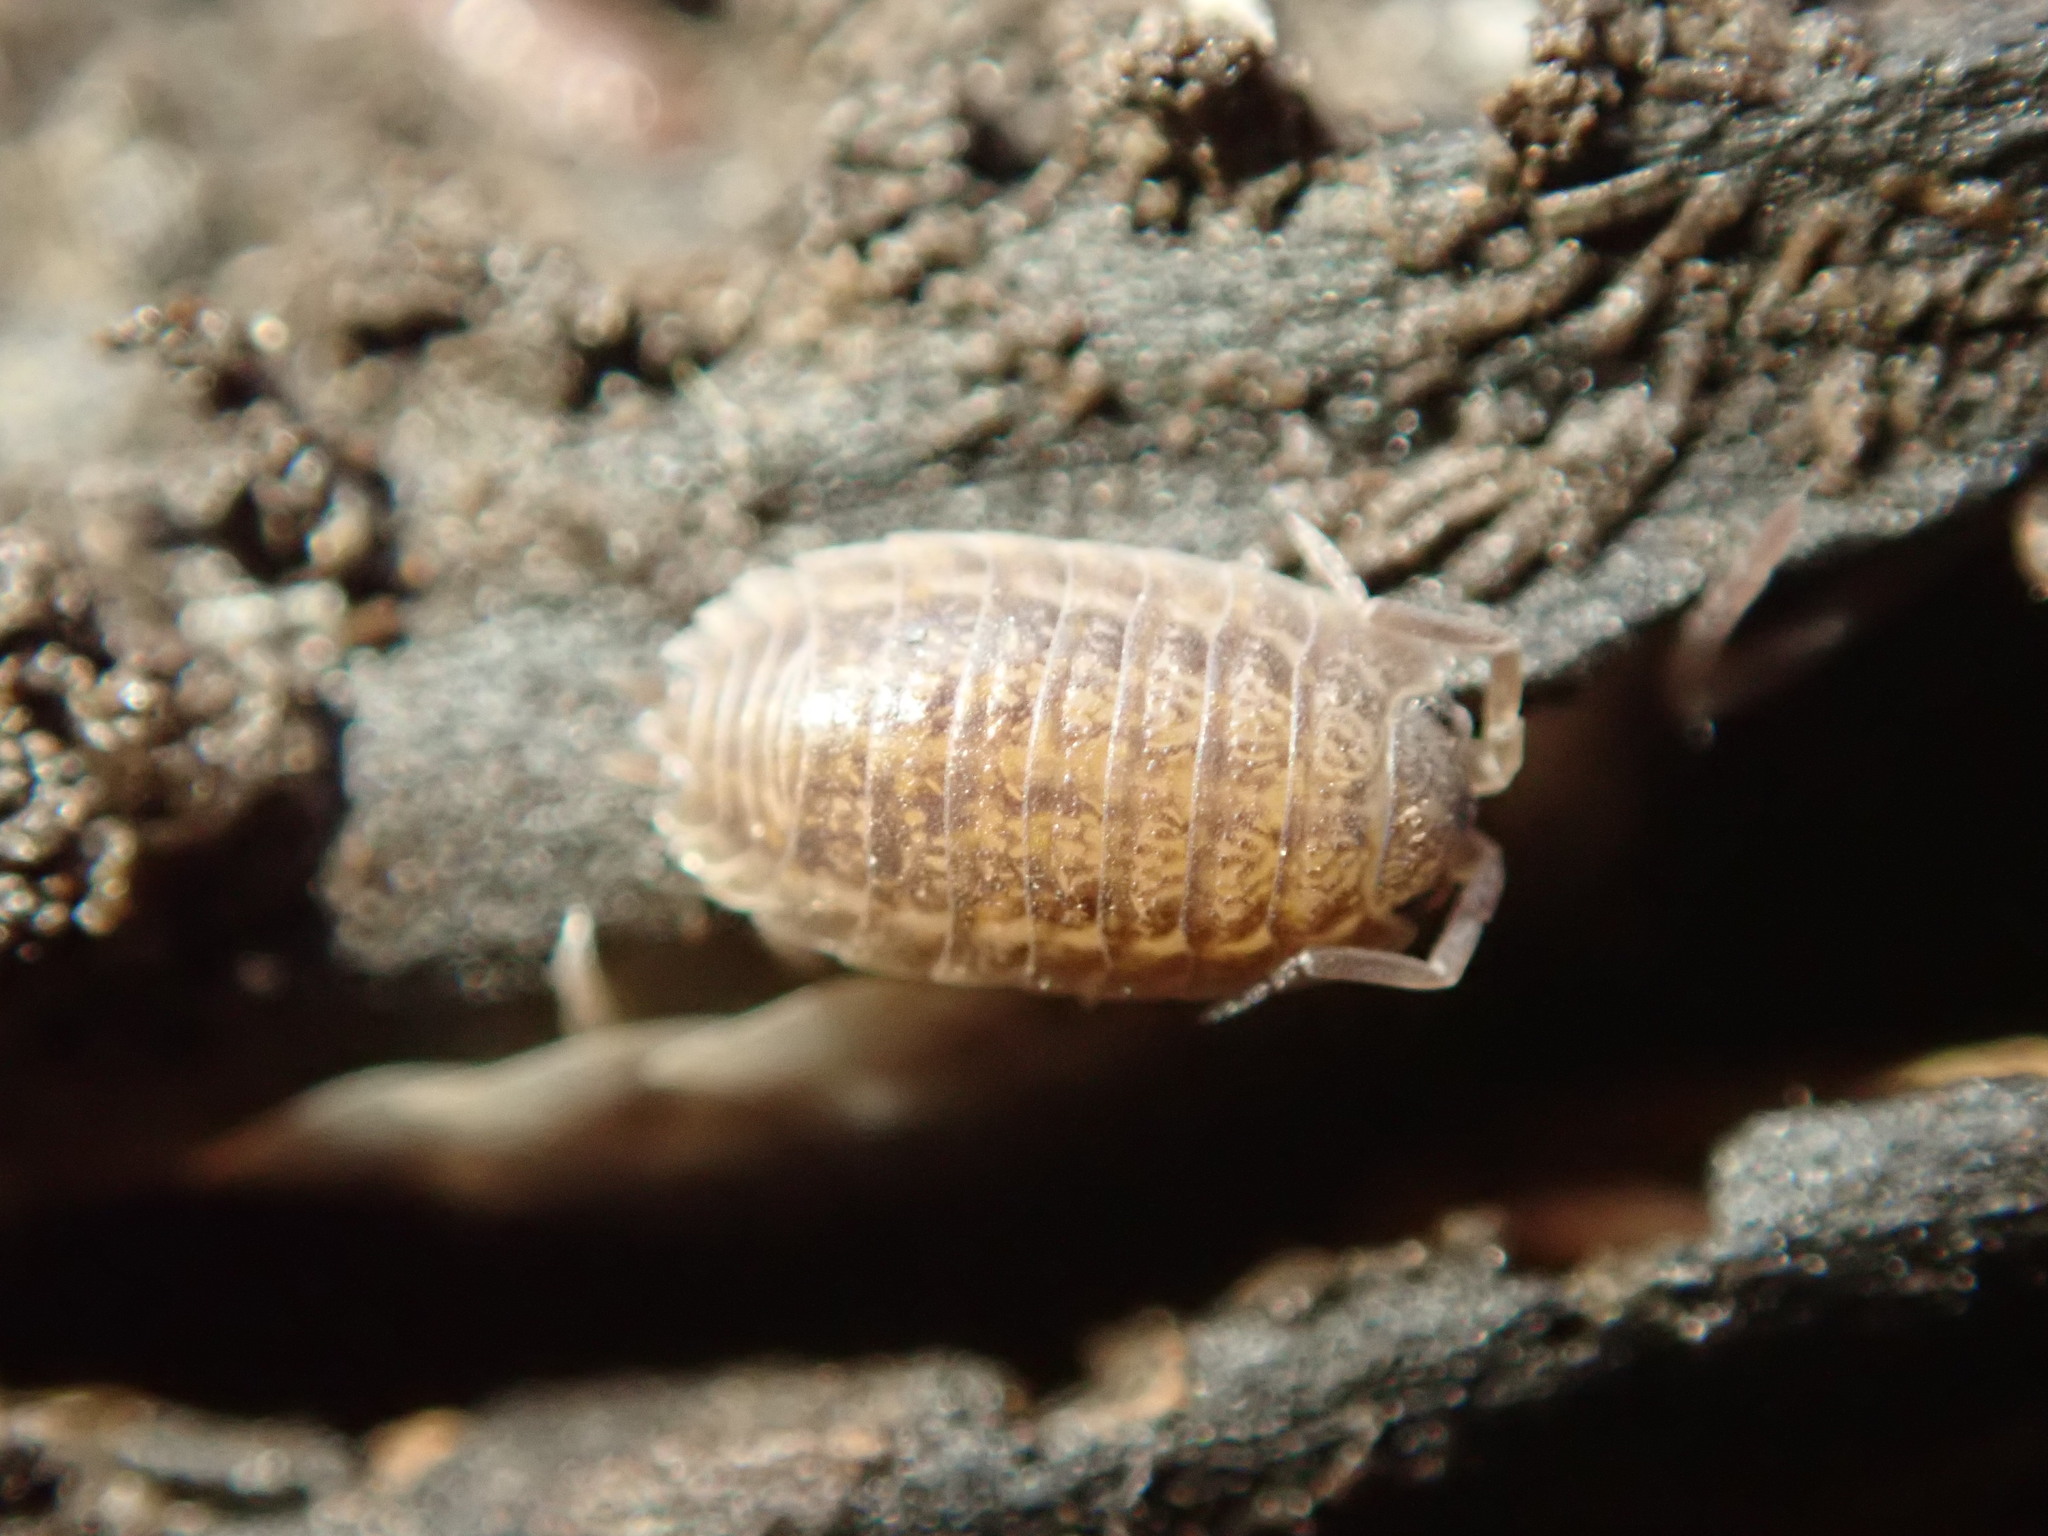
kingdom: Animalia
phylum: Arthropoda
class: Malacostraca
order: Isopoda
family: Trachelipodidae
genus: Trachelipus
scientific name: Trachelipus rathkii
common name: Isopod
